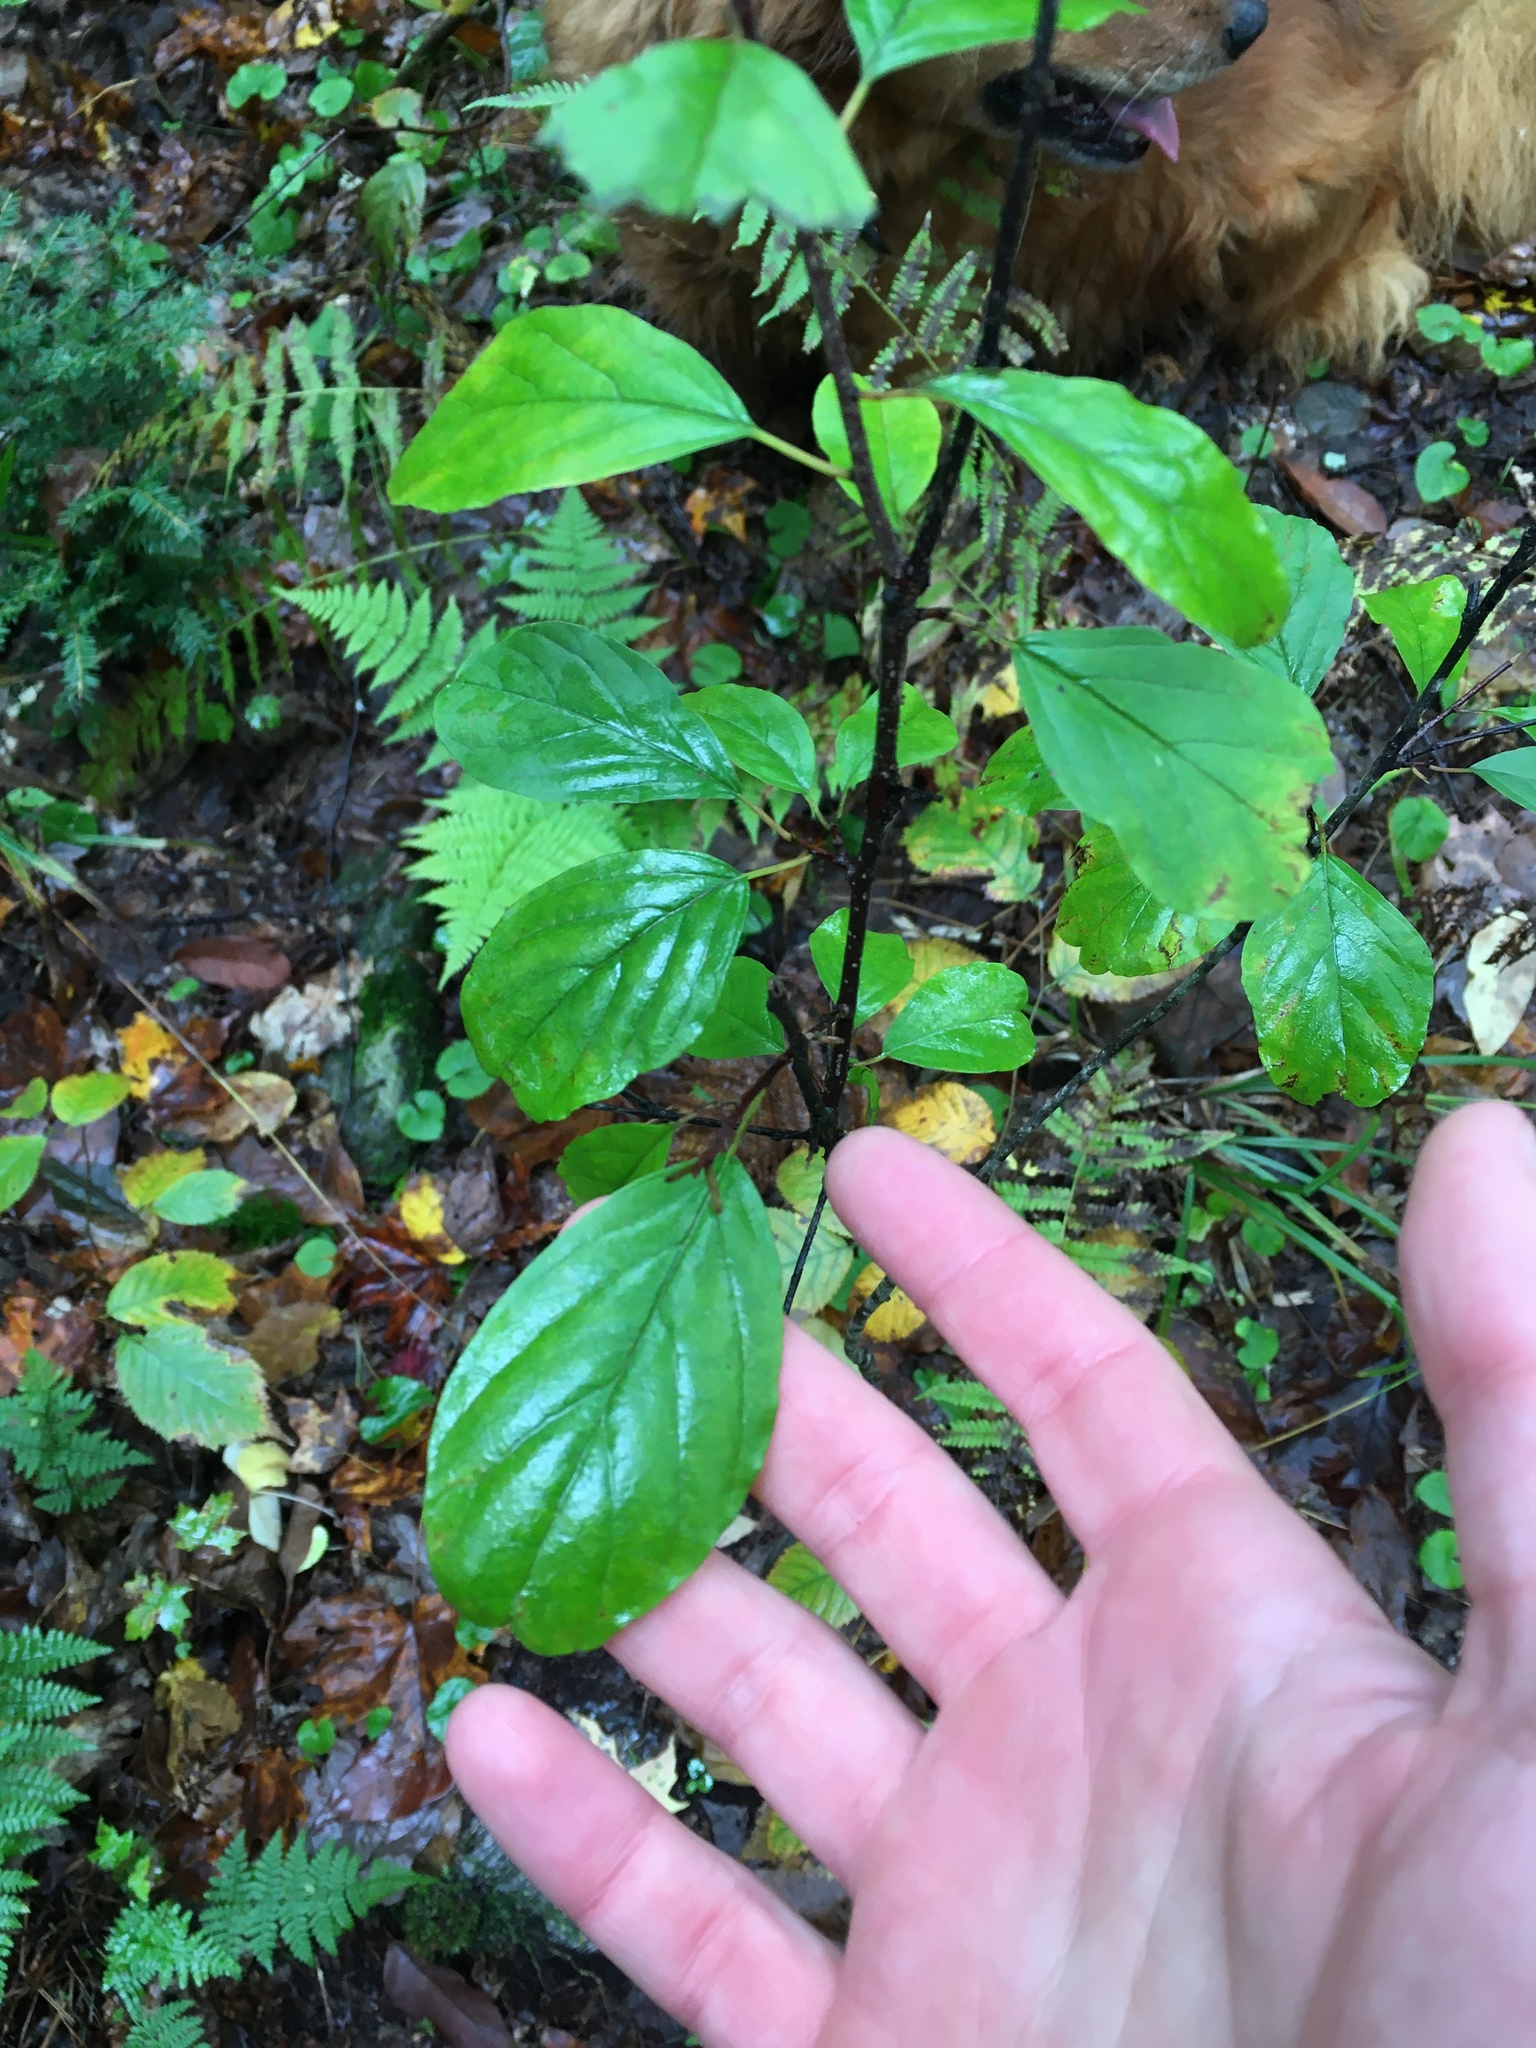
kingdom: Plantae
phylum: Tracheophyta
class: Magnoliopsida
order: Rosales
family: Rhamnaceae
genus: Frangula
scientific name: Frangula alnus
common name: Alder buckthorn
